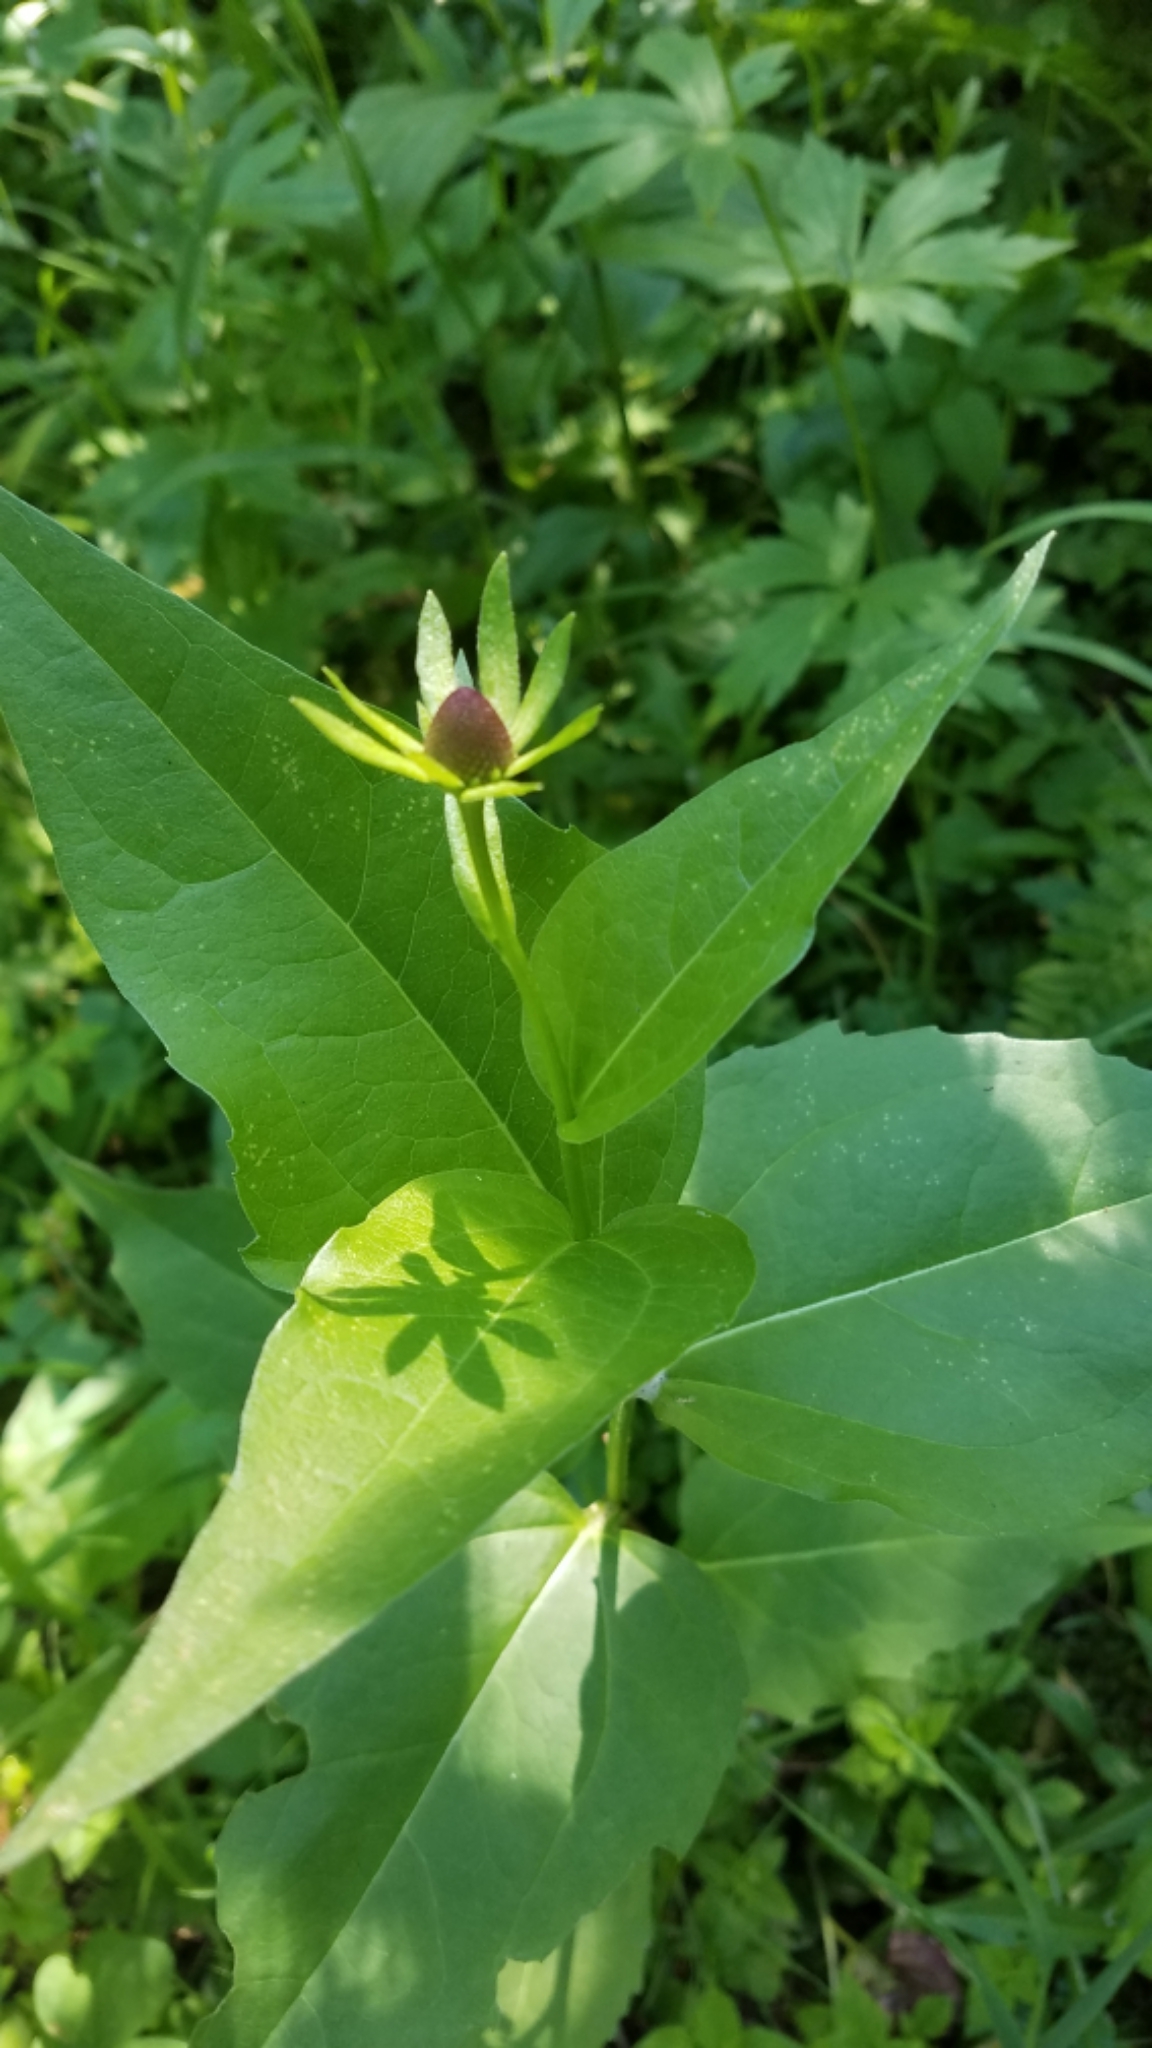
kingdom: Plantae
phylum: Tracheophyta
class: Magnoliopsida
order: Asterales
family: Asteraceae
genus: Rudbeckia
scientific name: Rudbeckia occidentalis
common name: Western coneflower
